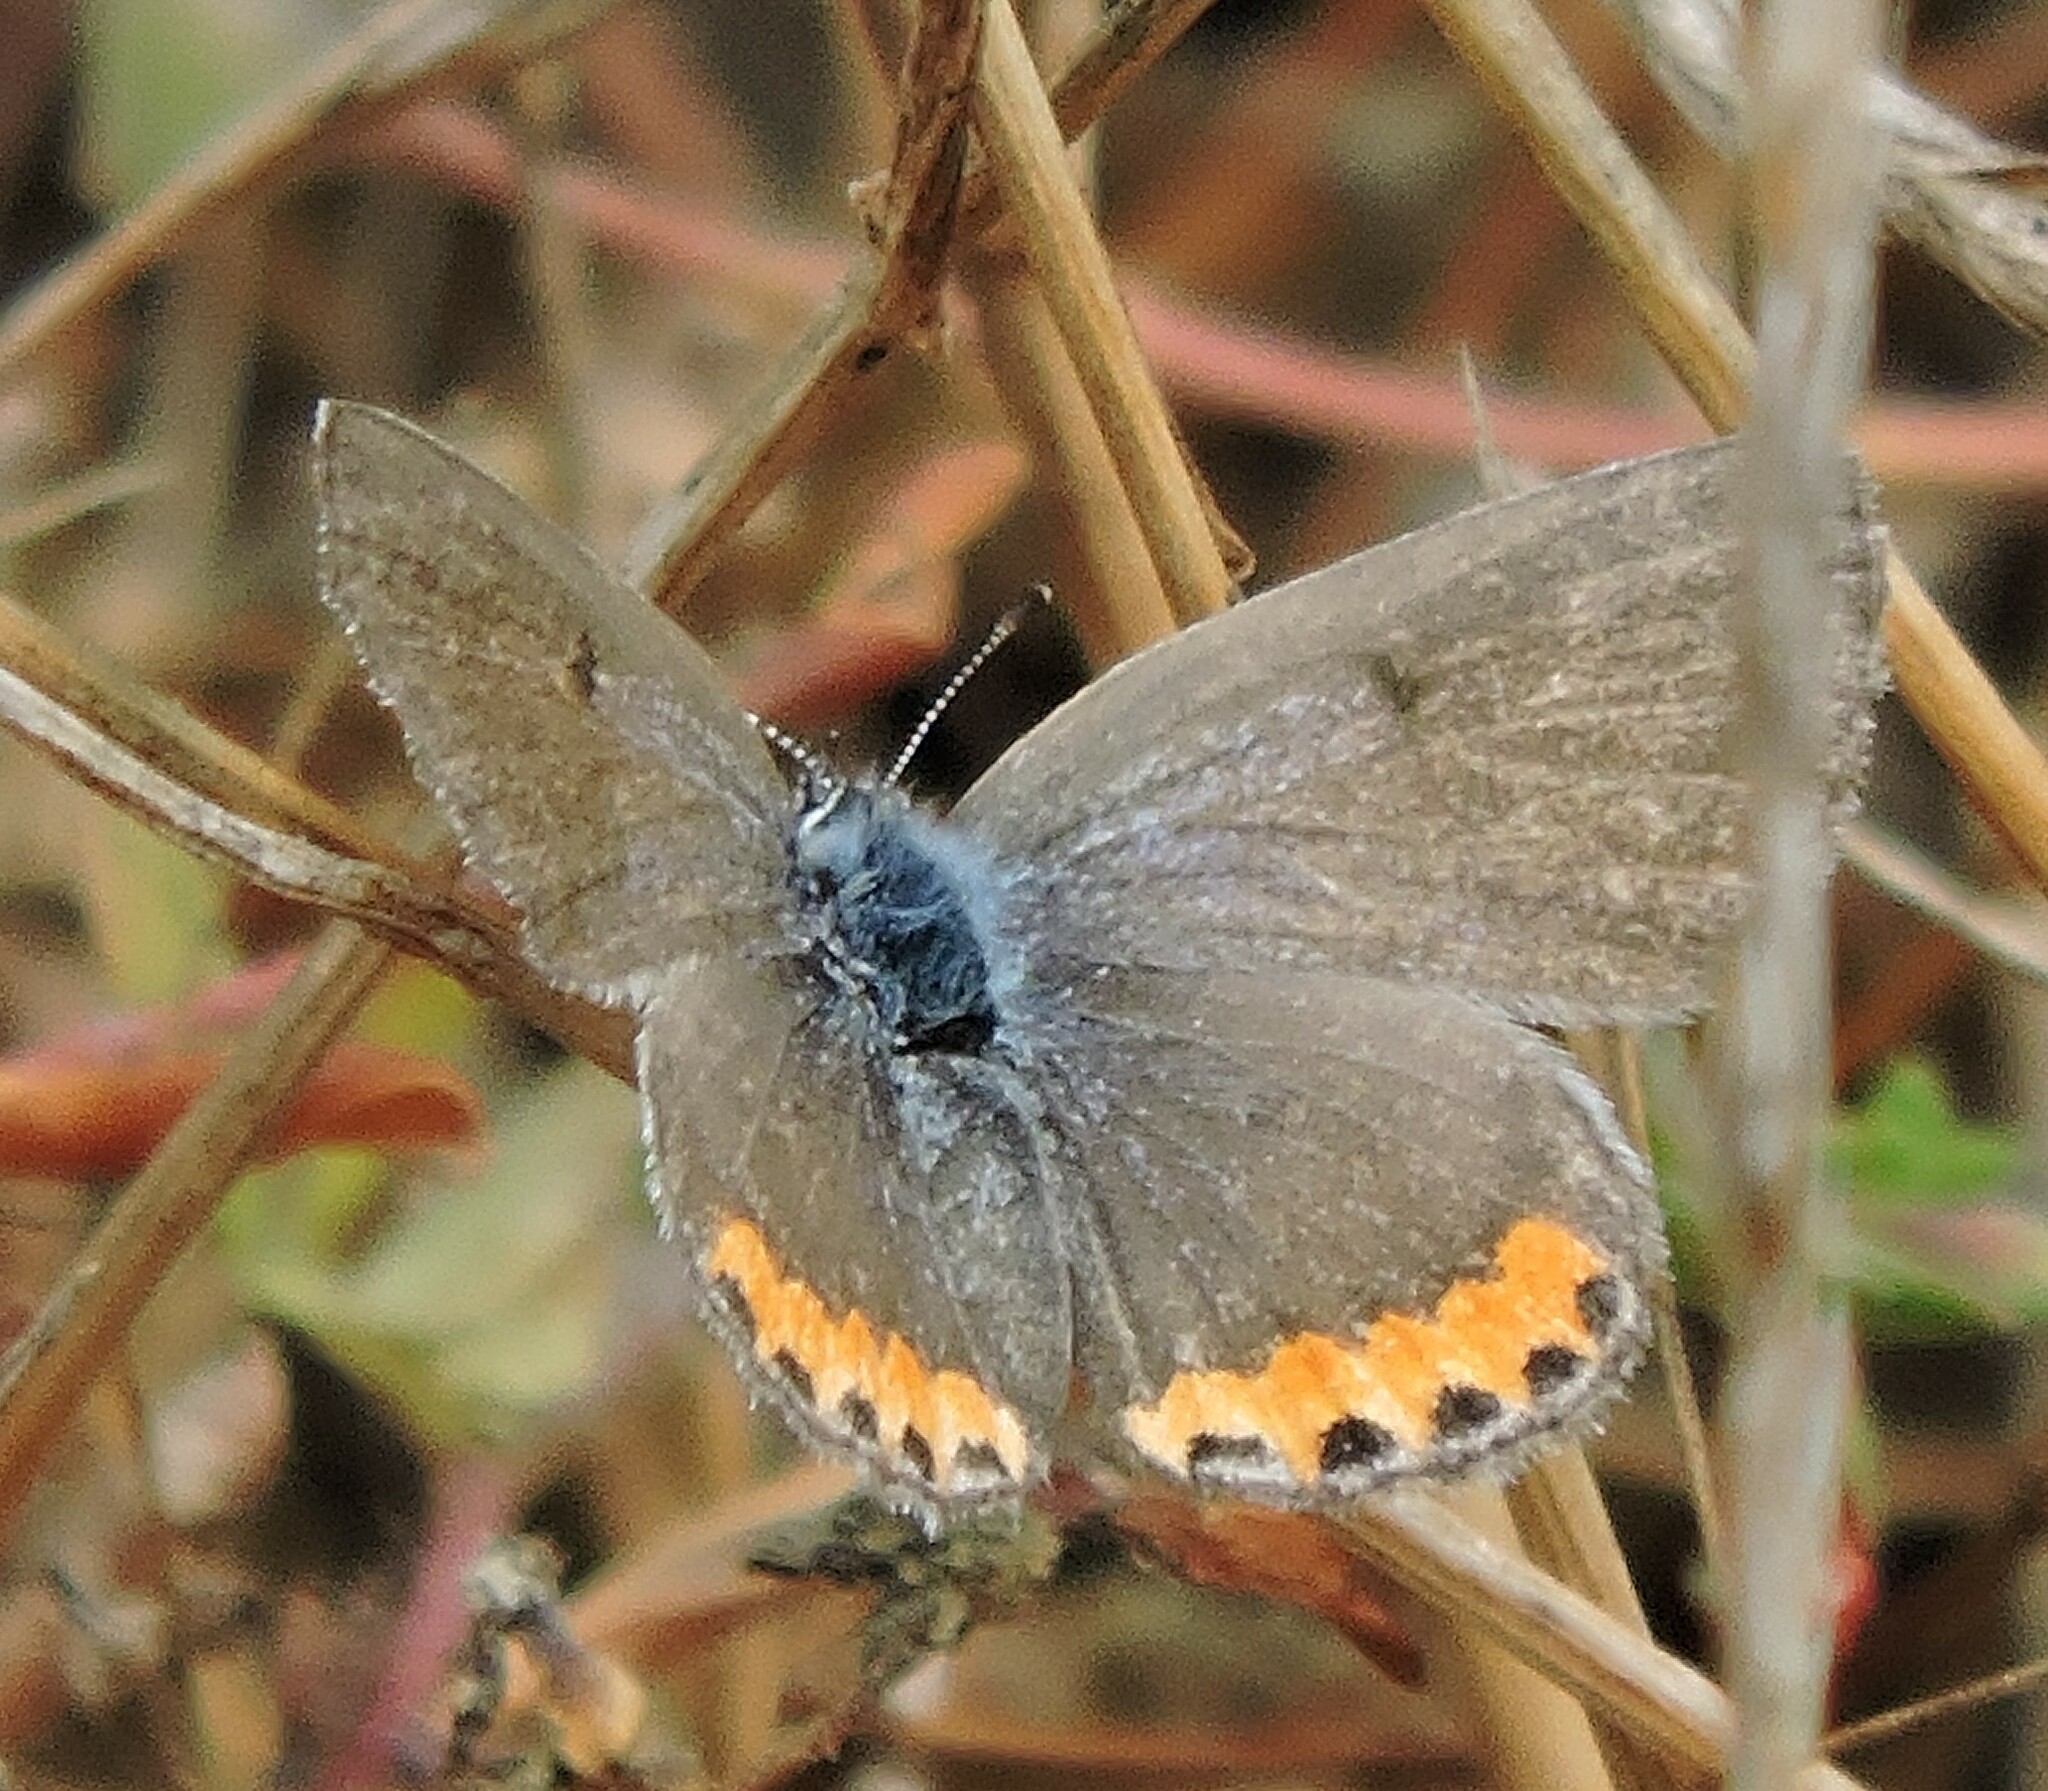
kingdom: Animalia
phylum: Arthropoda
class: Insecta
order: Lepidoptera
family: Lycaenidae
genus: Icaricia
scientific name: Icaricia acmon
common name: Acmon blue
